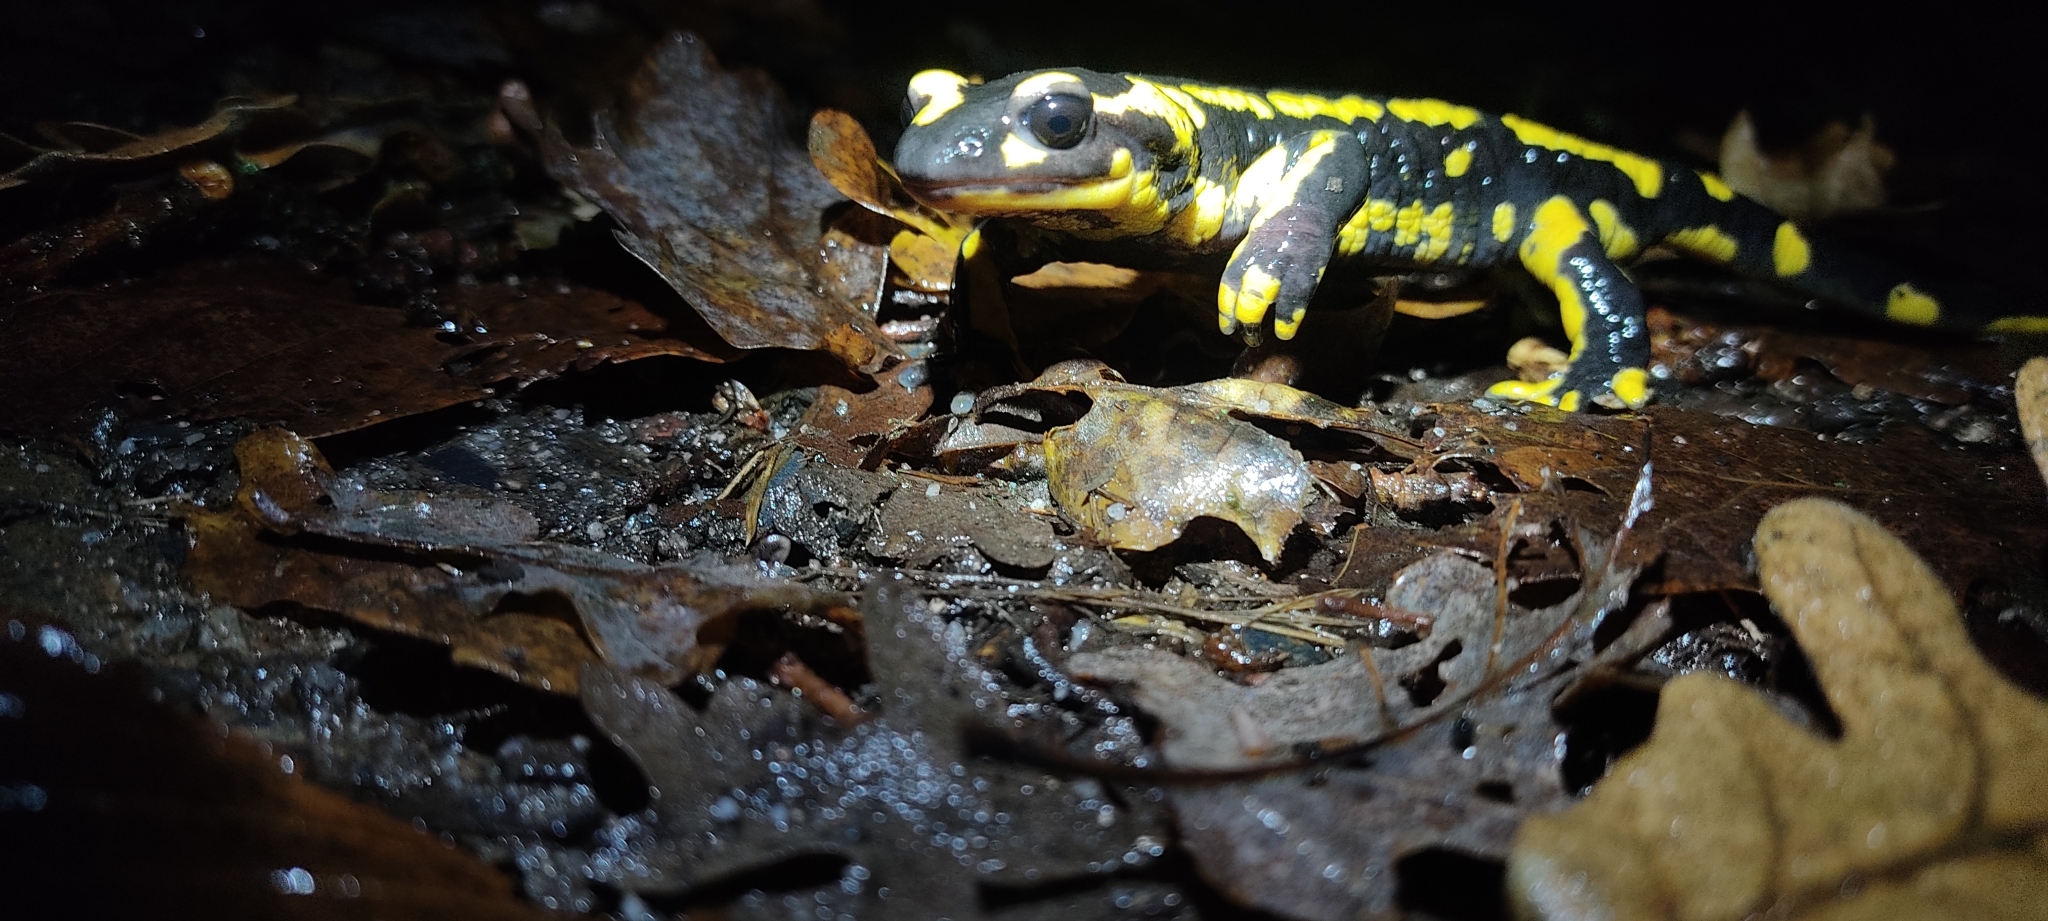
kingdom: Animalia
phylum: Chordata
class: Amphibia
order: Caudata
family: Salamandridae
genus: Salamandra
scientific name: Salamandra salamandra
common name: Fire salamander
